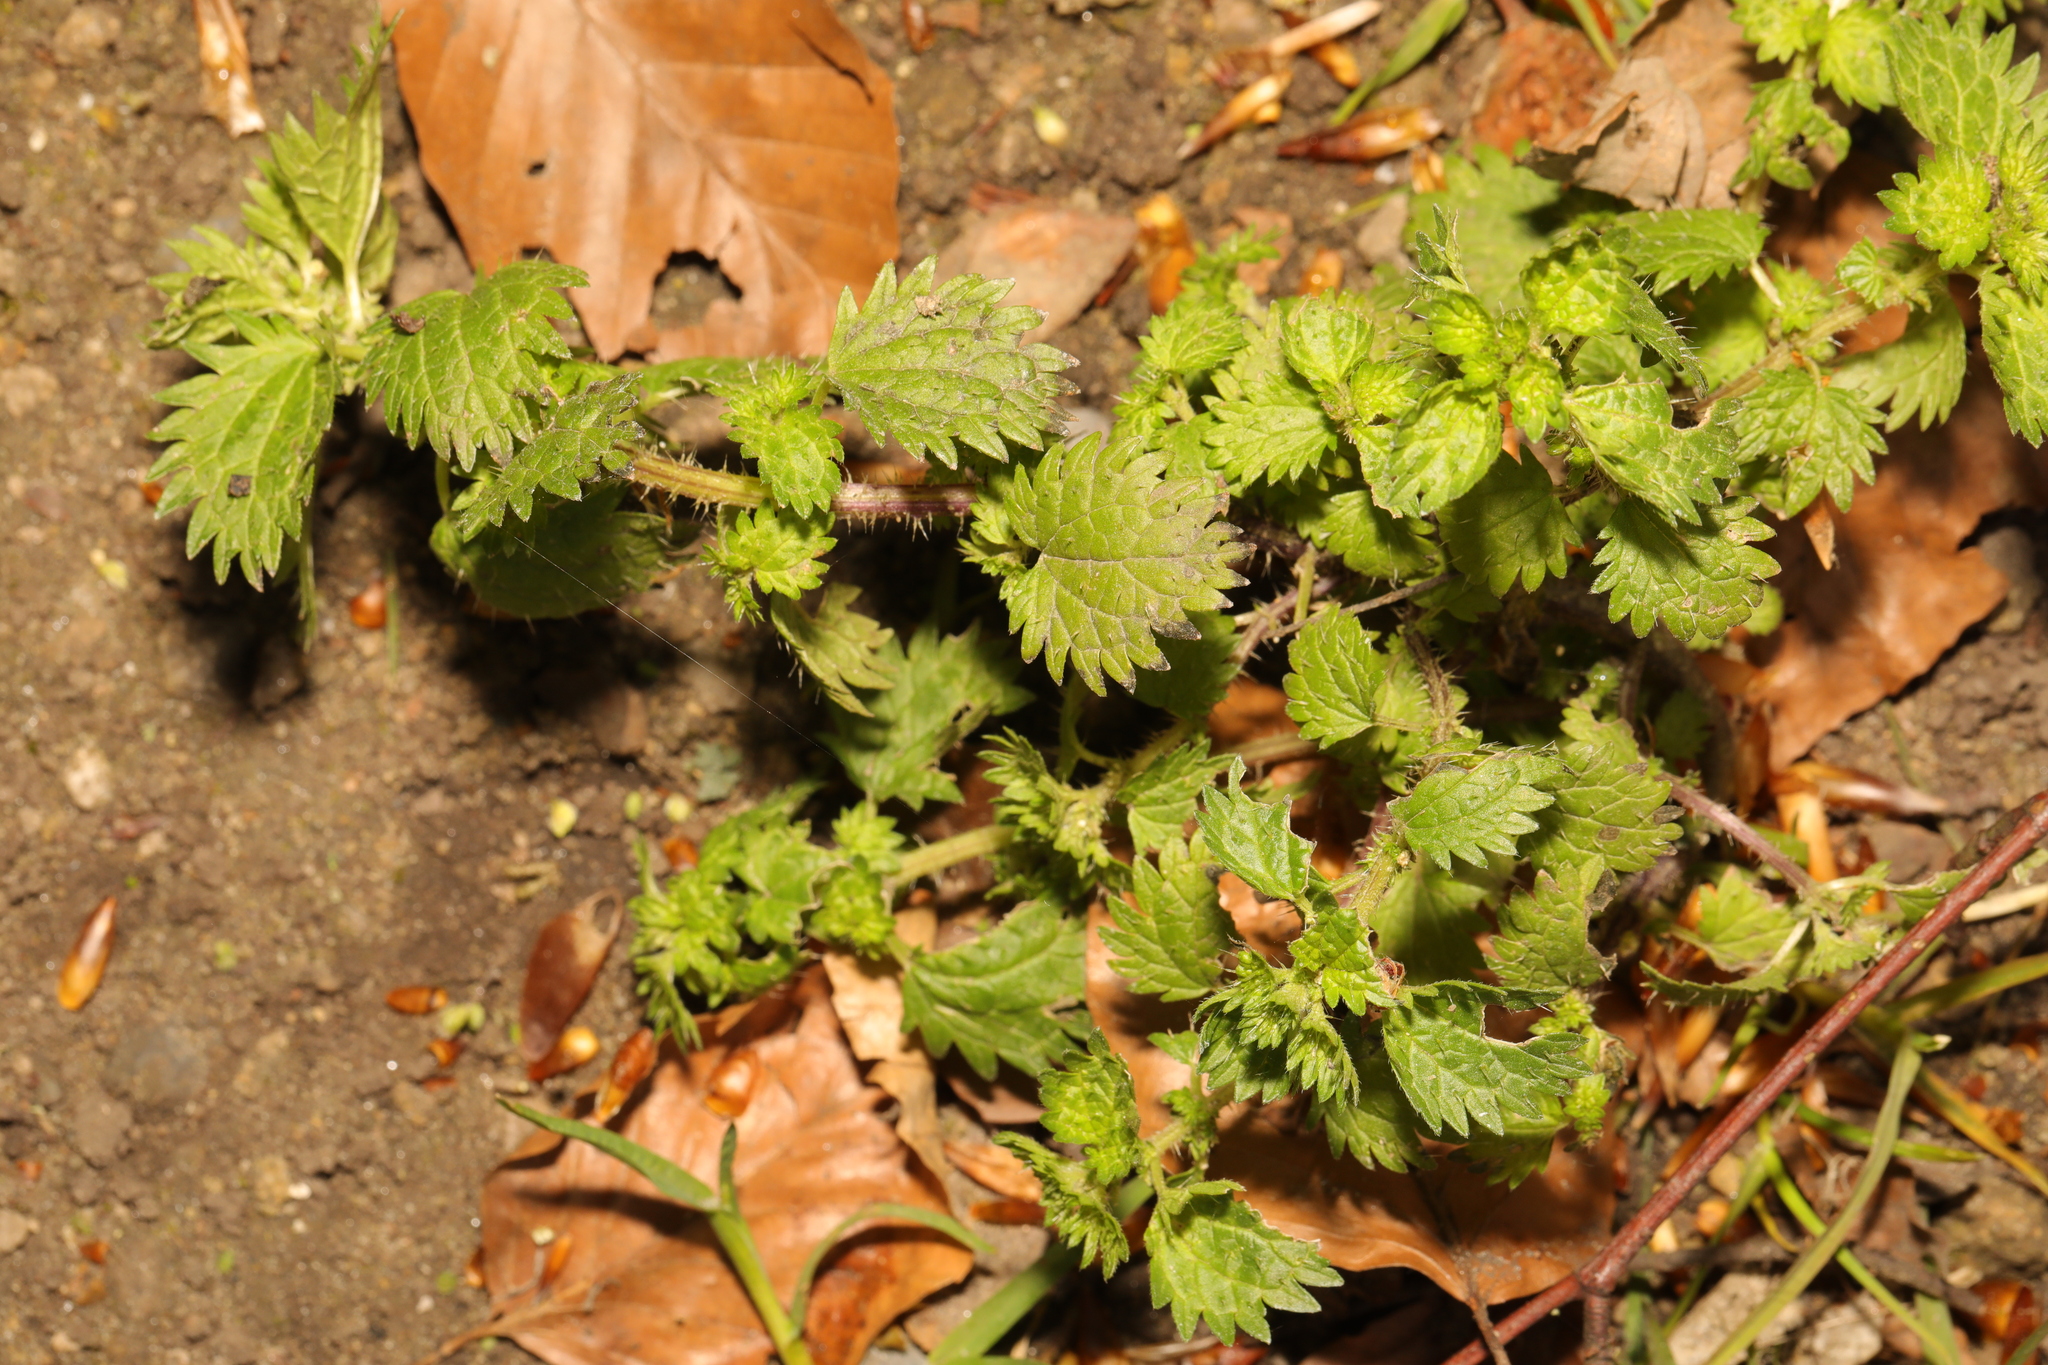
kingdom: Plantae
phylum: Tracheophyta
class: Magnoliopsida
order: Rosales
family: Urticaceae
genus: Urtica
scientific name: Urtica dioica
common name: Common nettle
